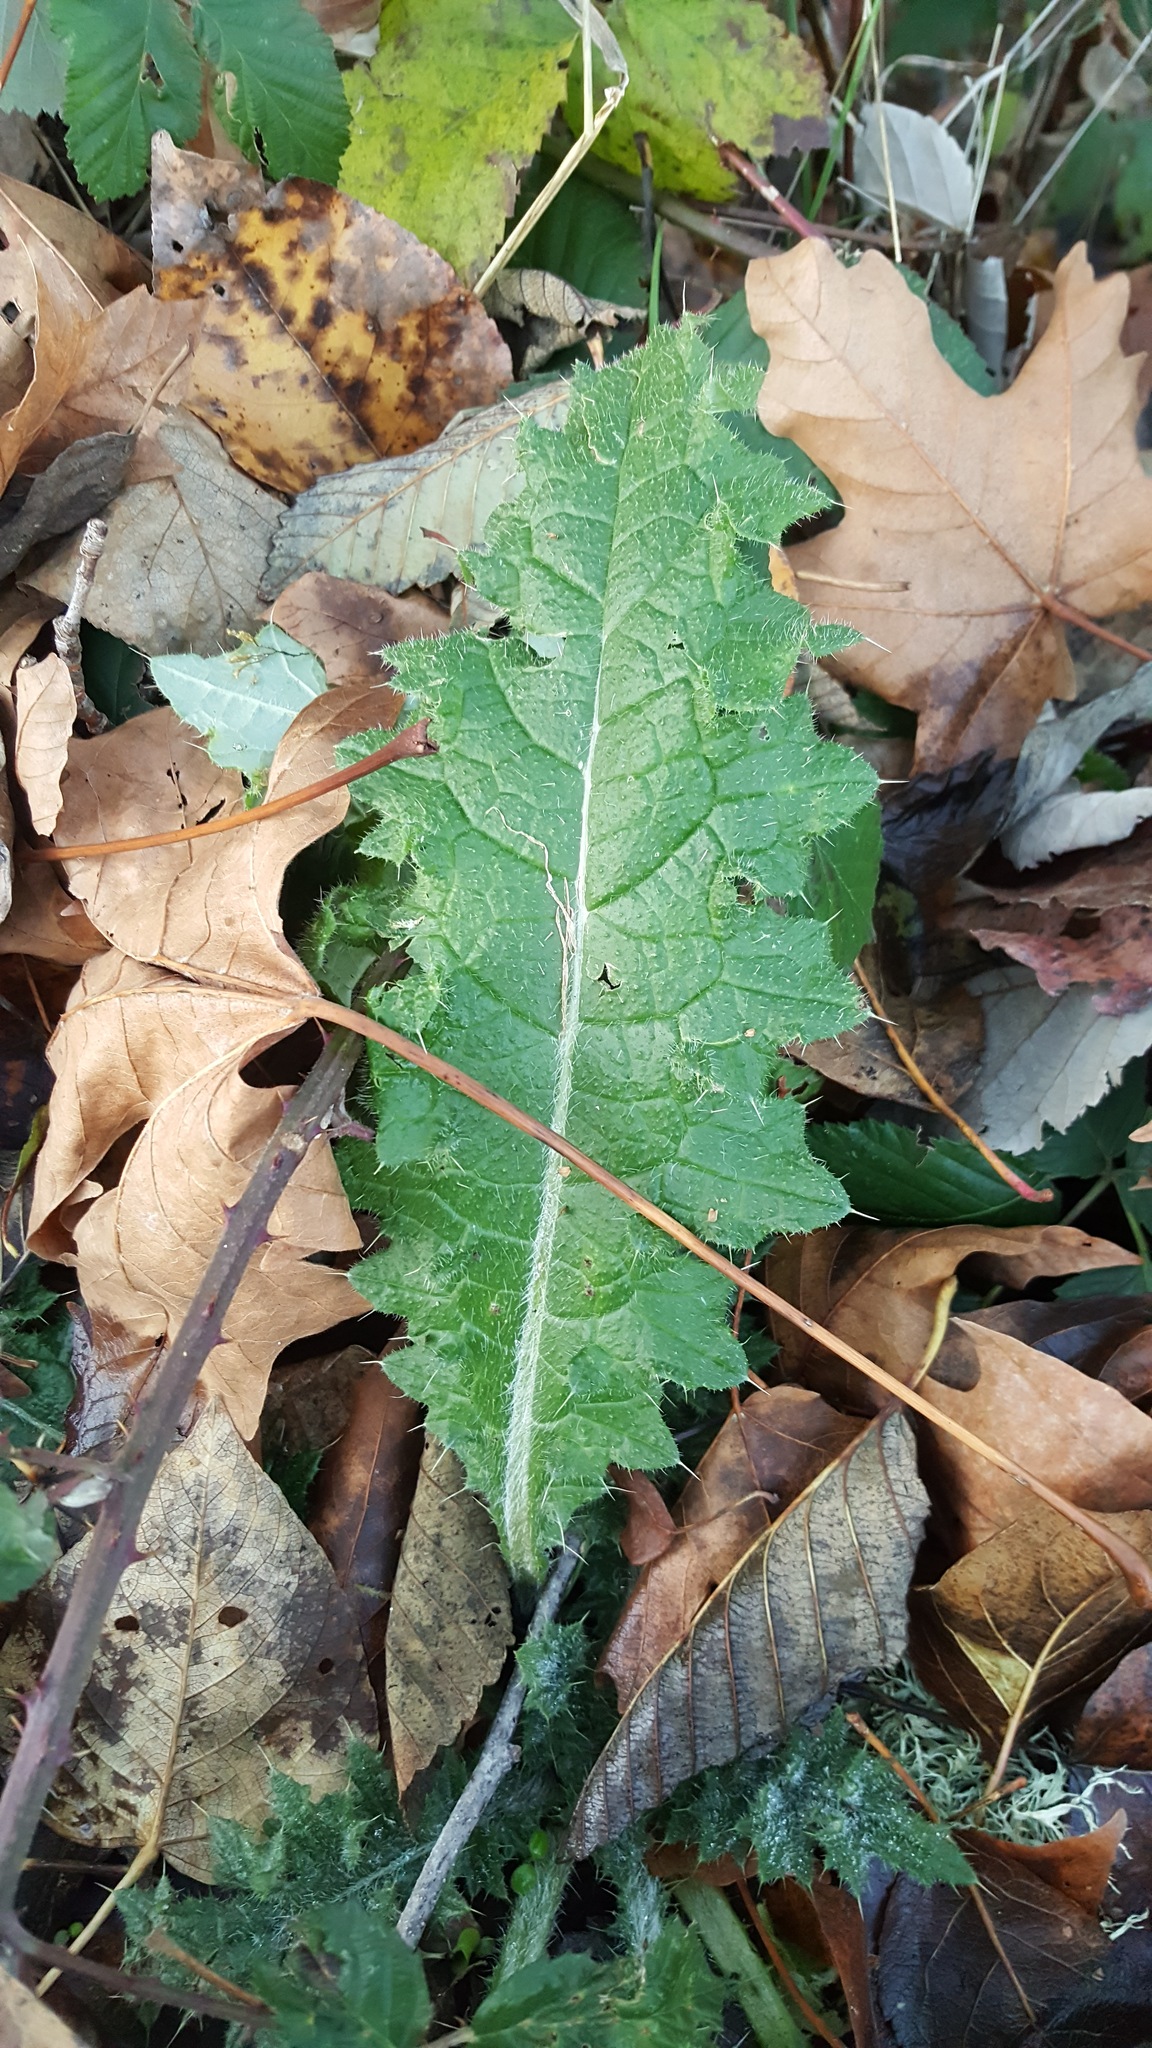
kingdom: Plantae
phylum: Tracheophyta
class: Magnoliopsida
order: Asterales
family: Asteraceae
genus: Cirsium
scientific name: Cirsium vulgare
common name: Bull thistle
